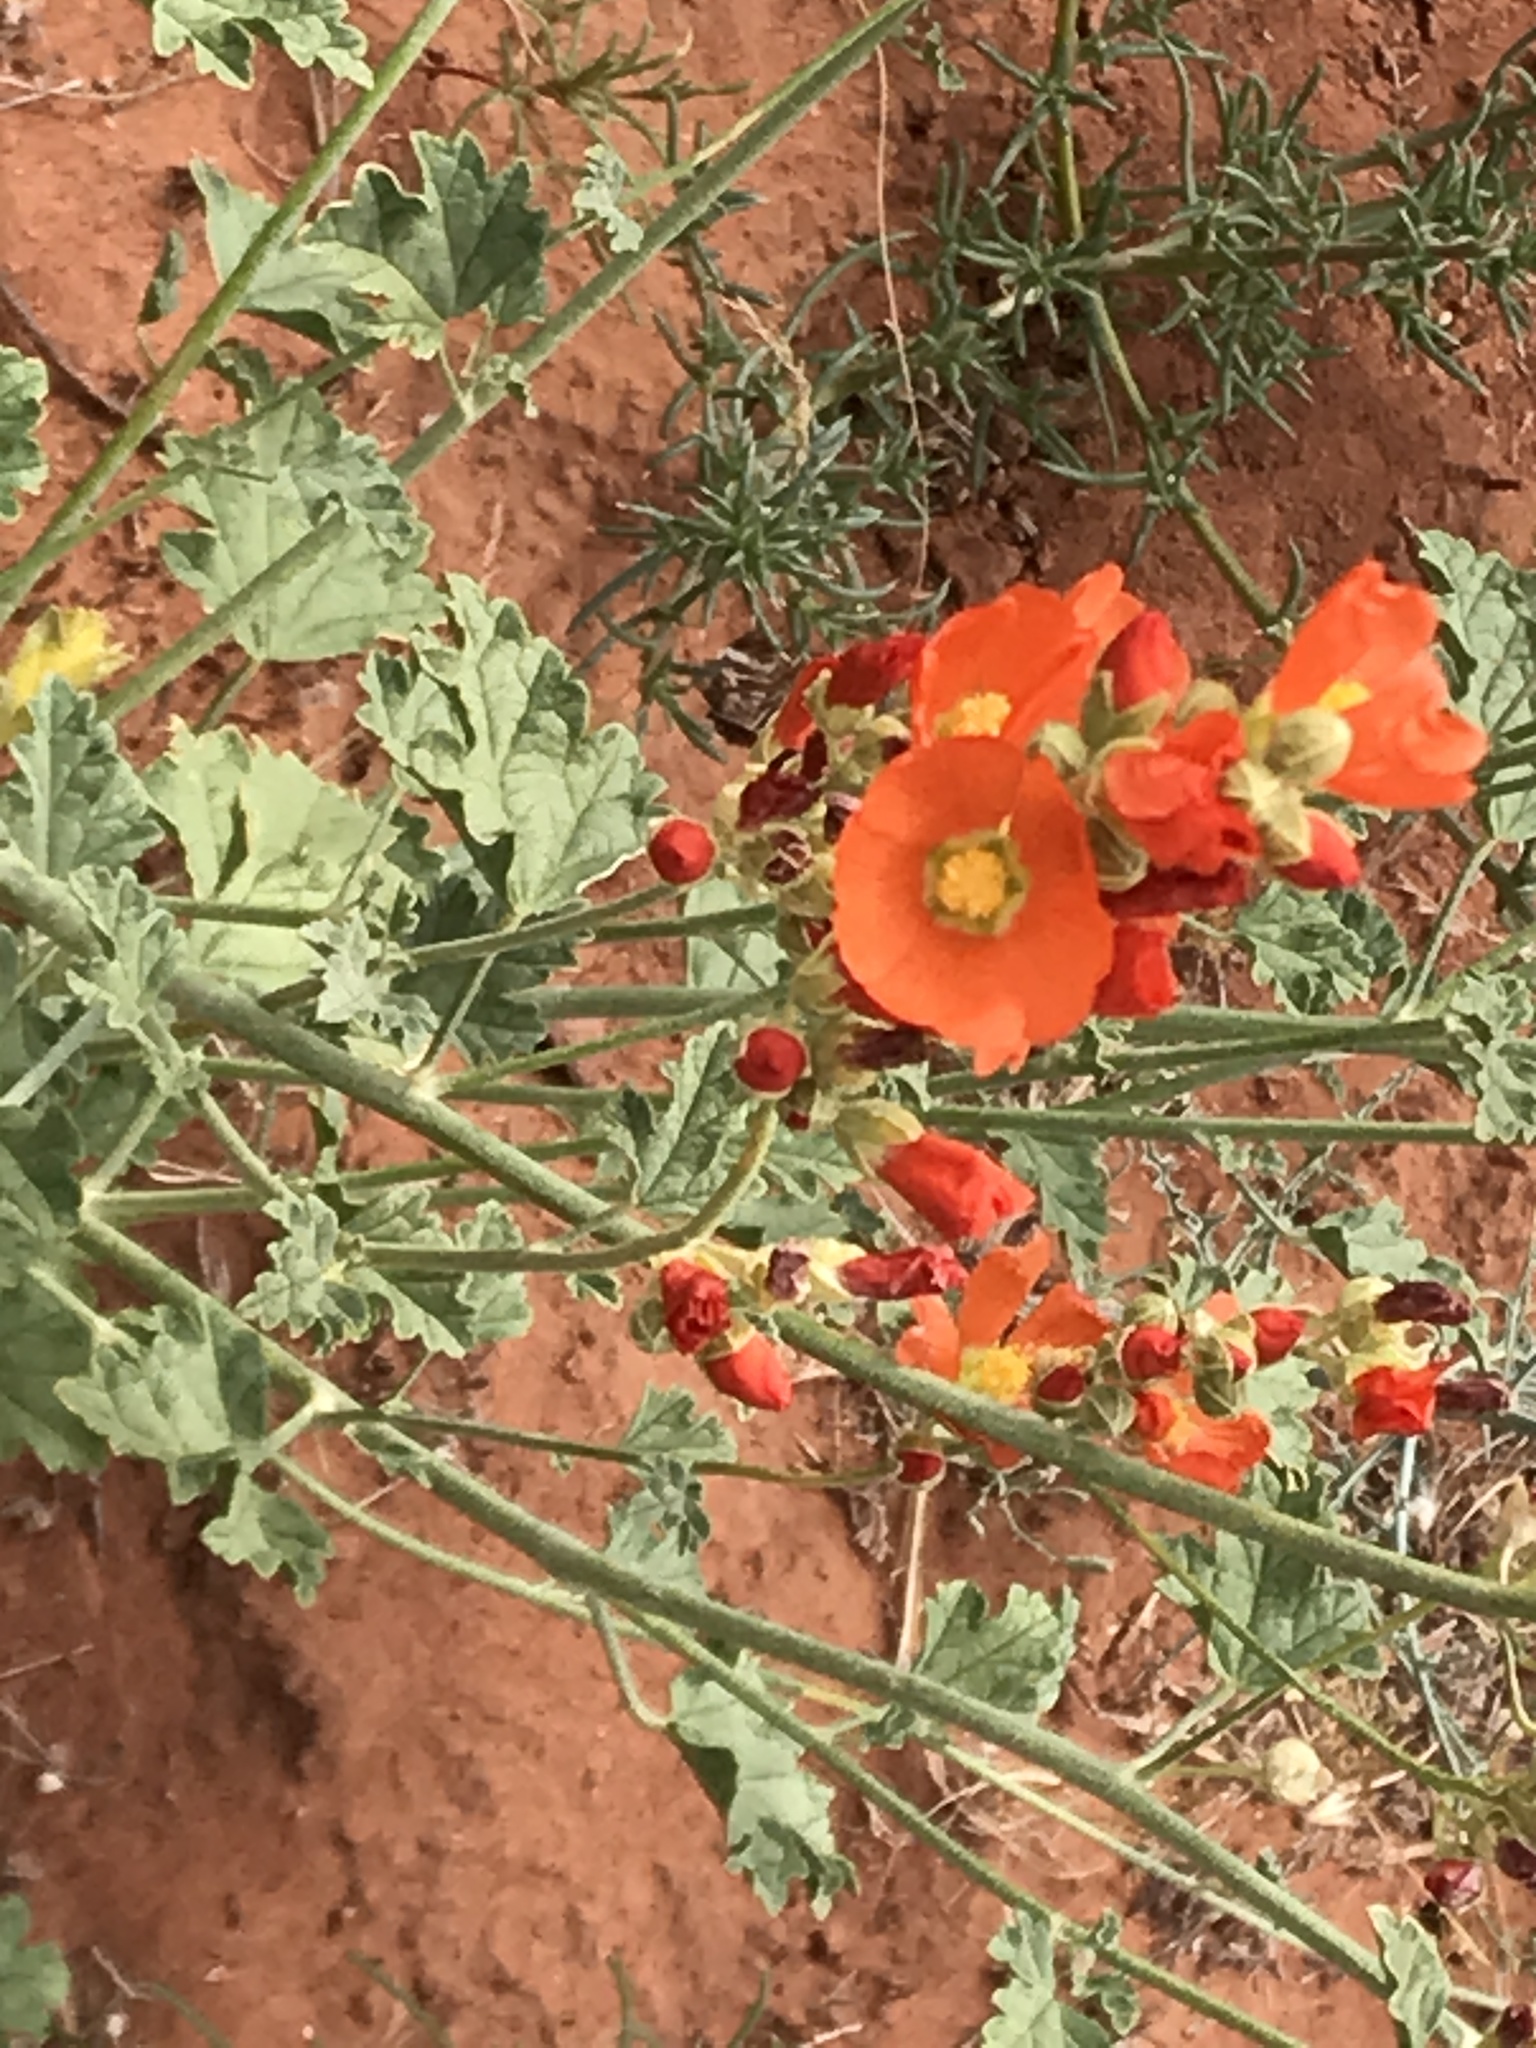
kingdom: Plantae
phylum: Tracheophyta
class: Magnoliopsida
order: Malvales
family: Malvaceae
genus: Sphaeralcea
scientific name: Sphaeralcea parvifolia
